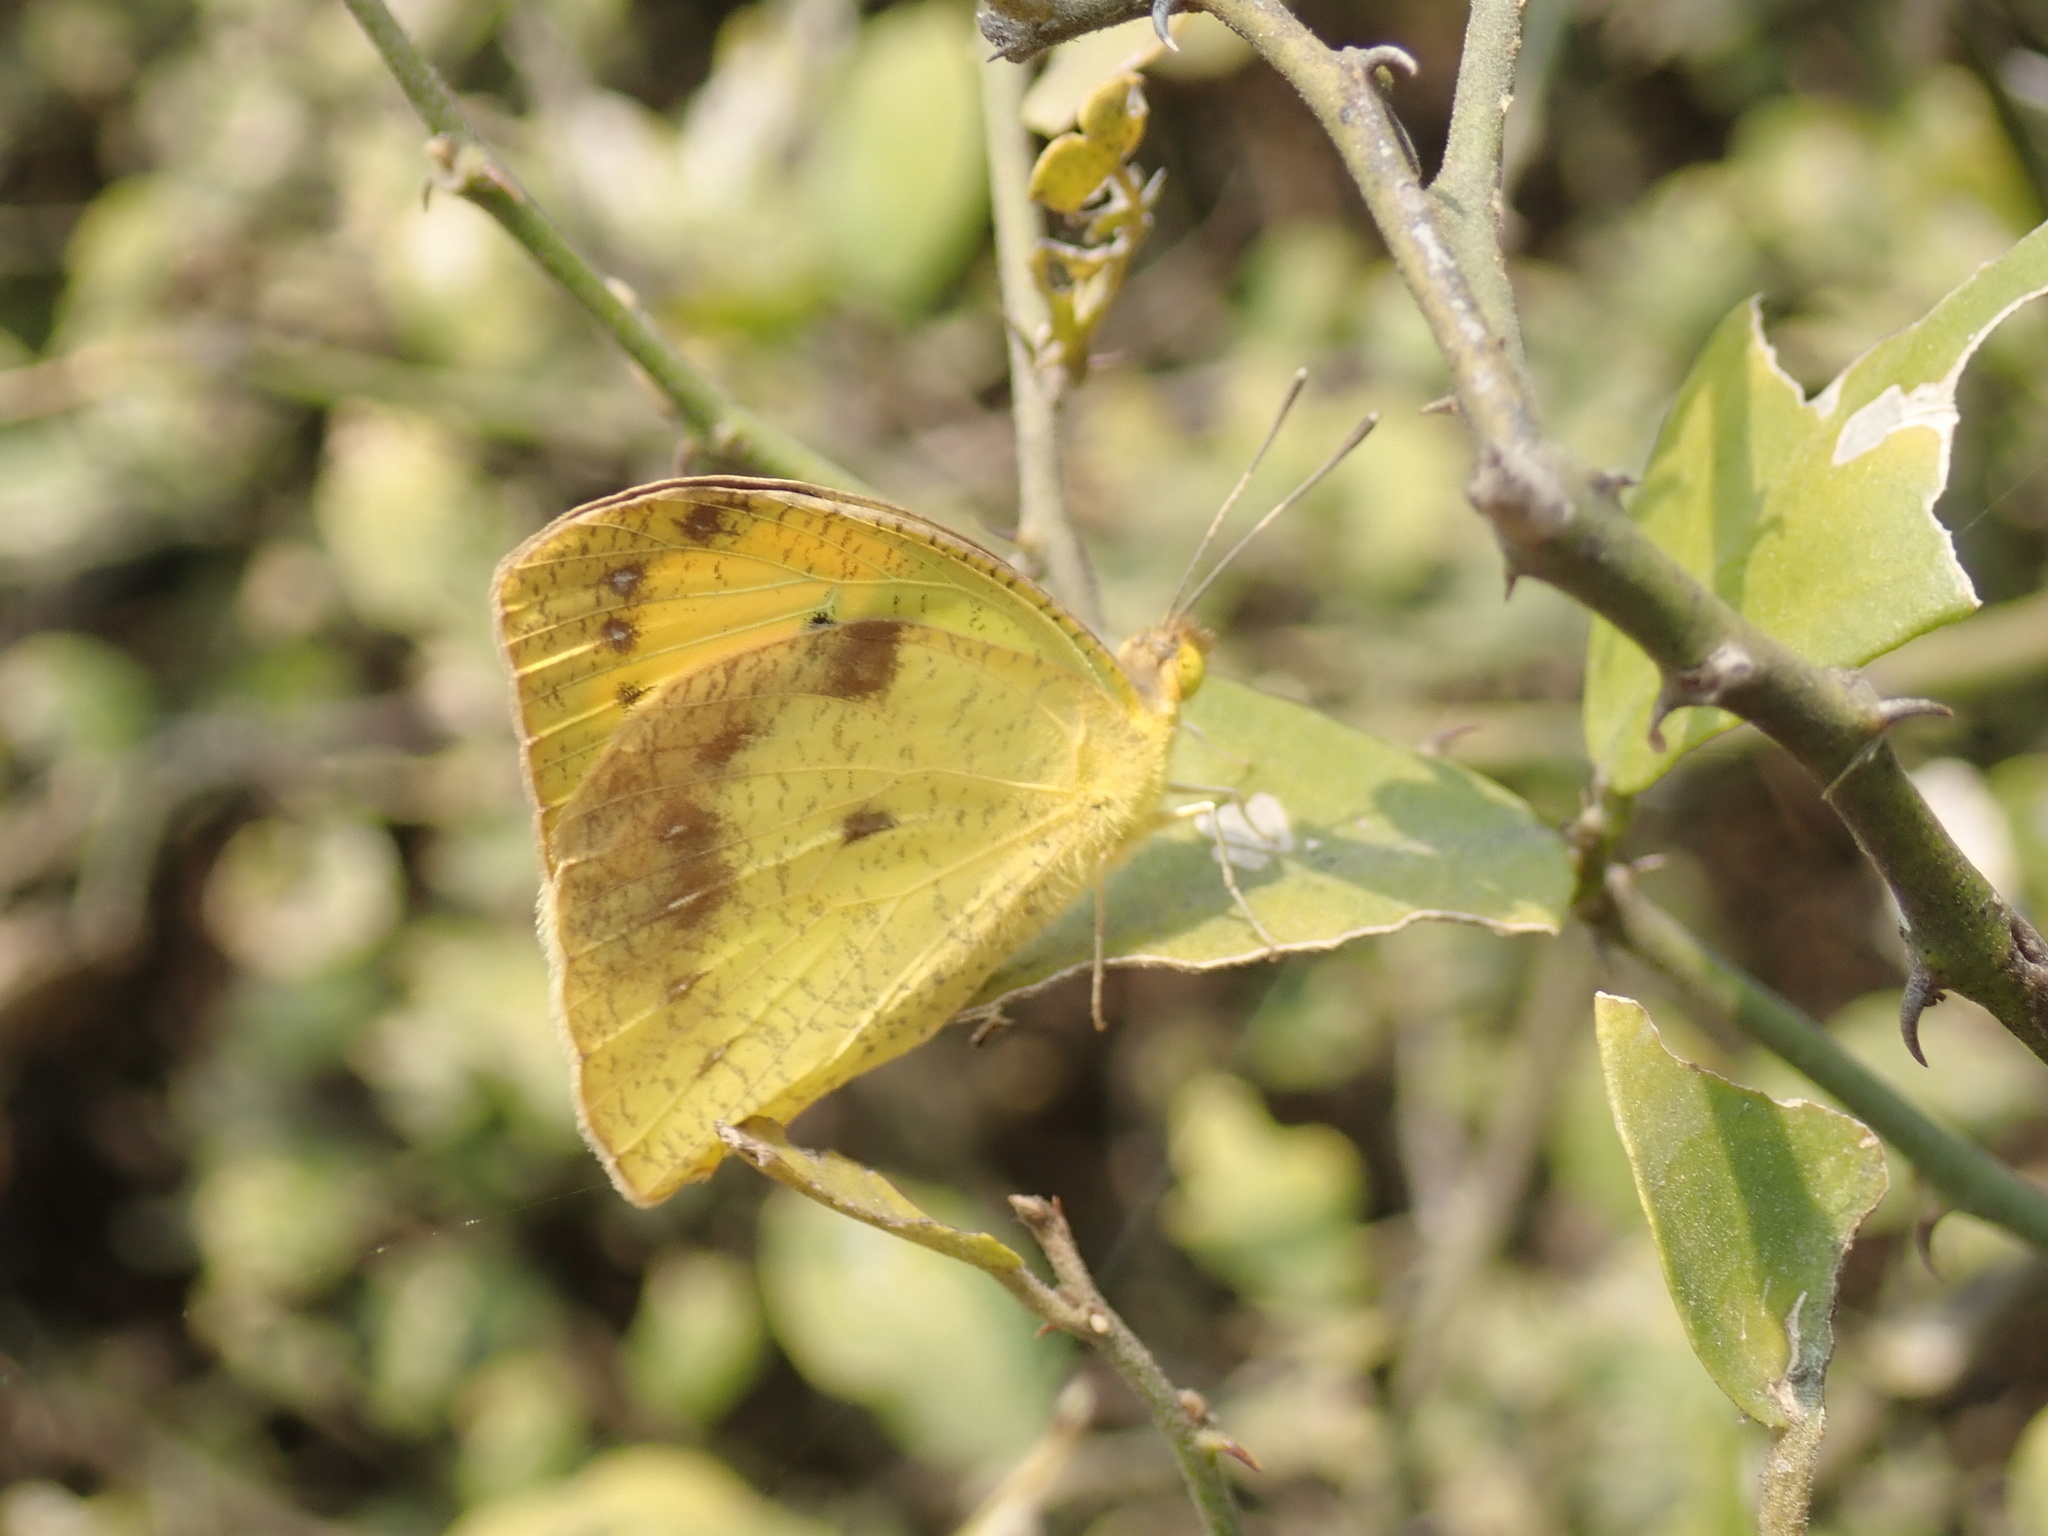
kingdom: Animalia
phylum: Arthropoda
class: Insecta
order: Lepidoptera
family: Pieridae
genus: Ixias
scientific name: Ixias pyrene
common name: Yellow orange tip
